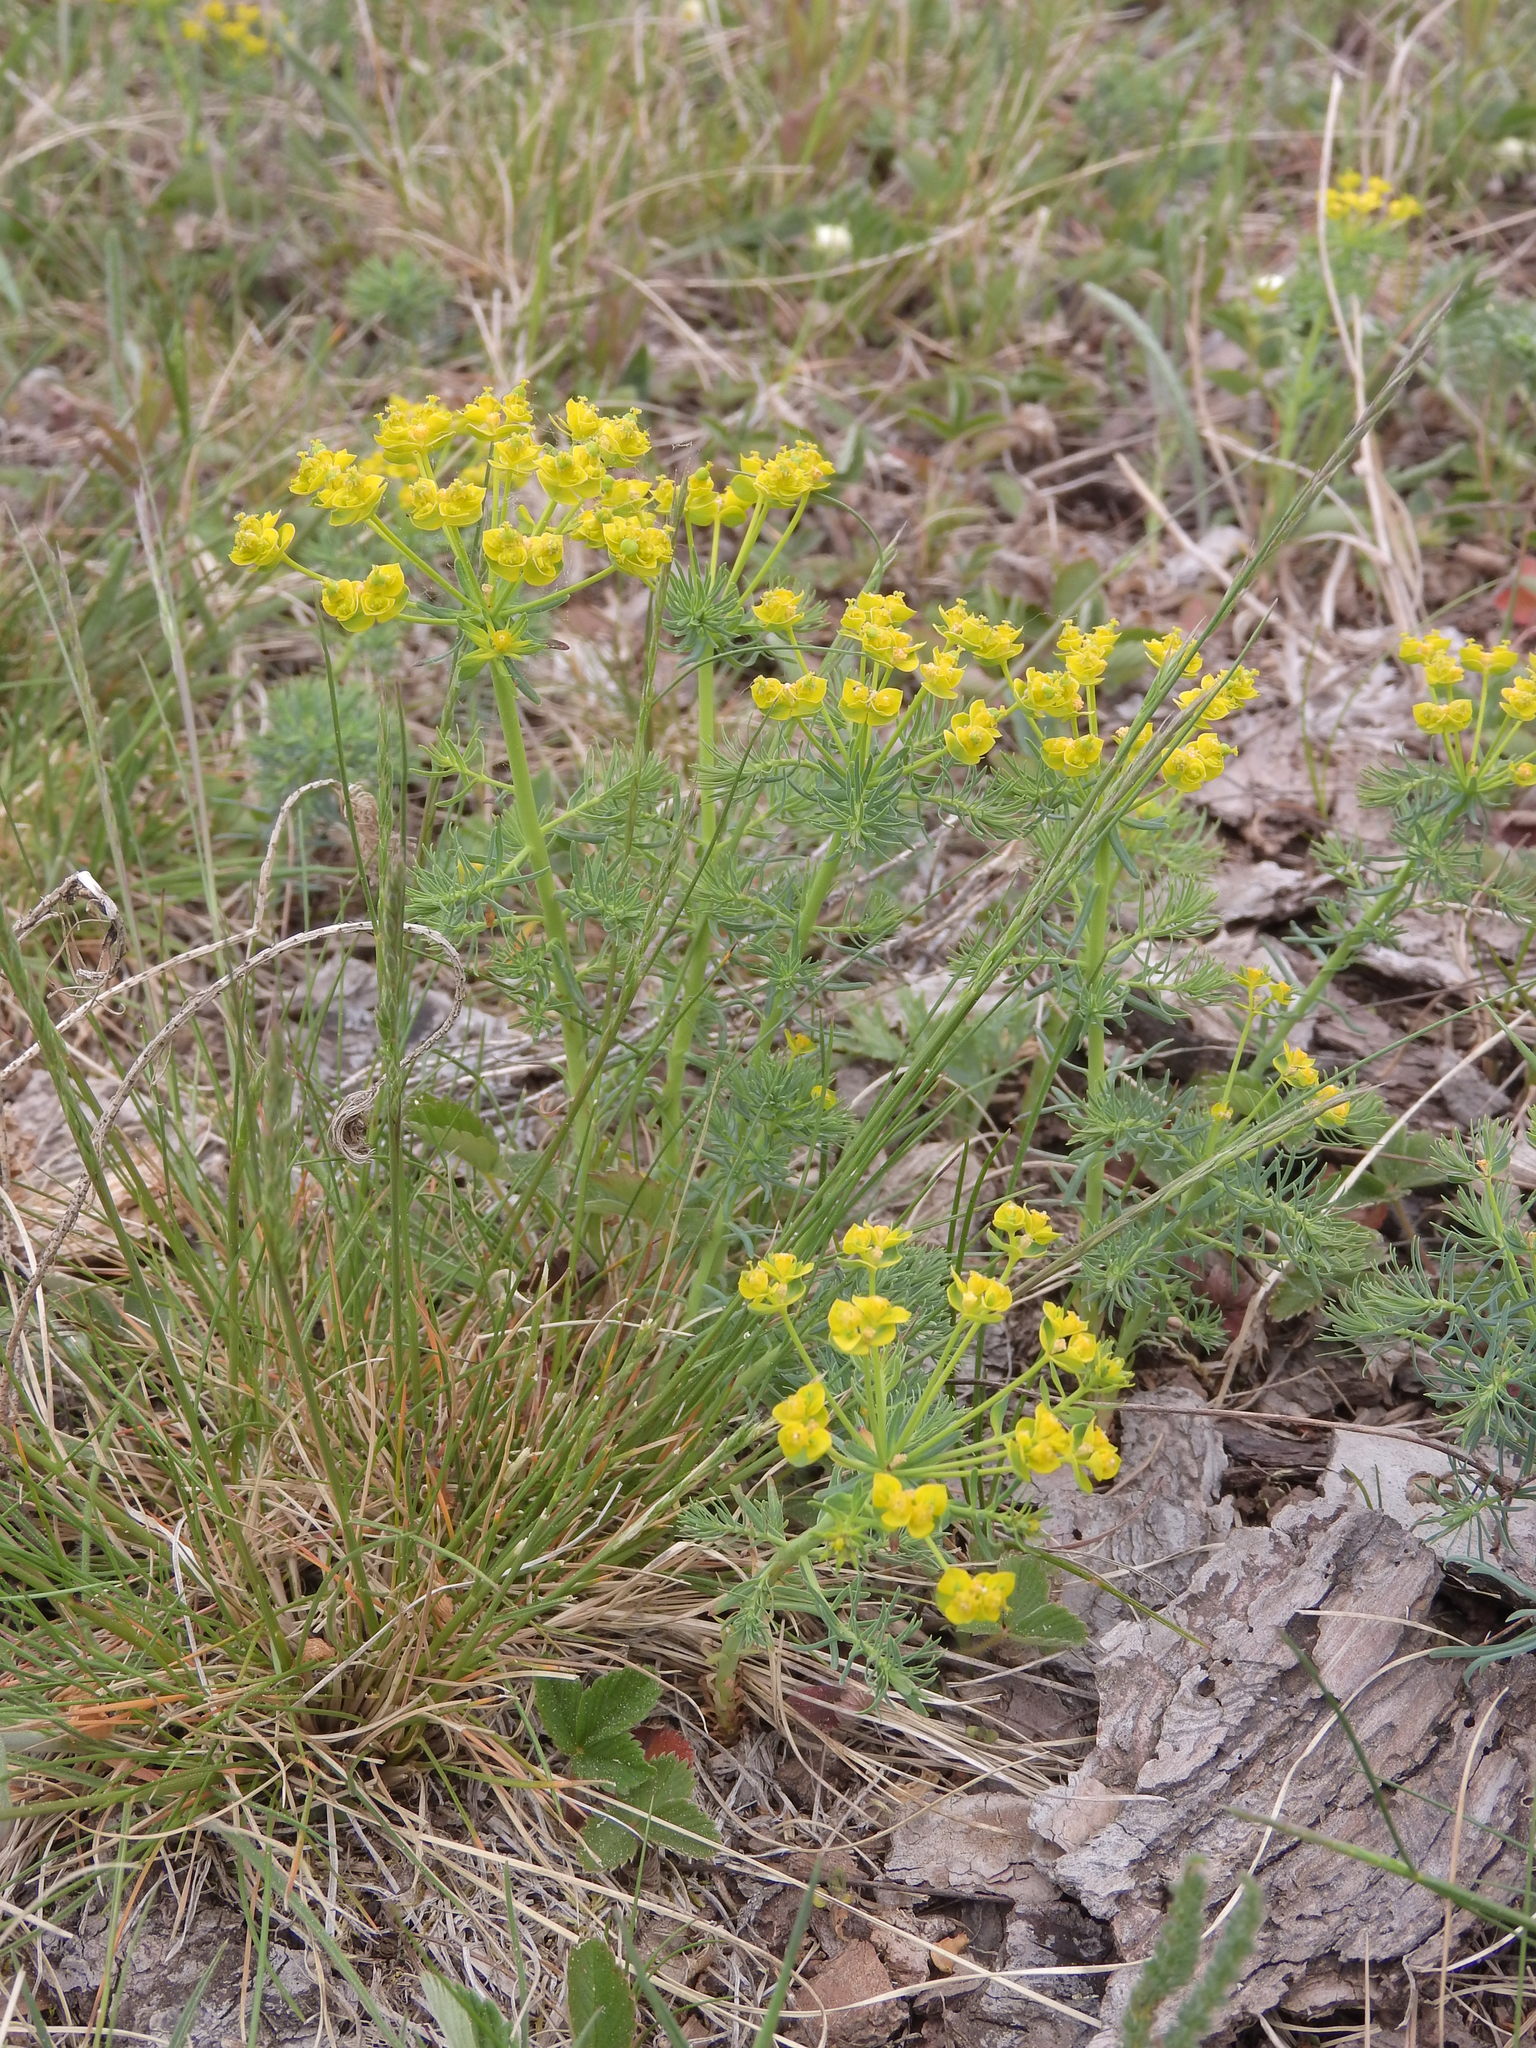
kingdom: Plantae
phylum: Tracheophyta
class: Magnoliopsida
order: Malpighiales
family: Euphorbiaceae
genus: Euphorbia
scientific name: Euphorbia cyparissias
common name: Cypress spurge
